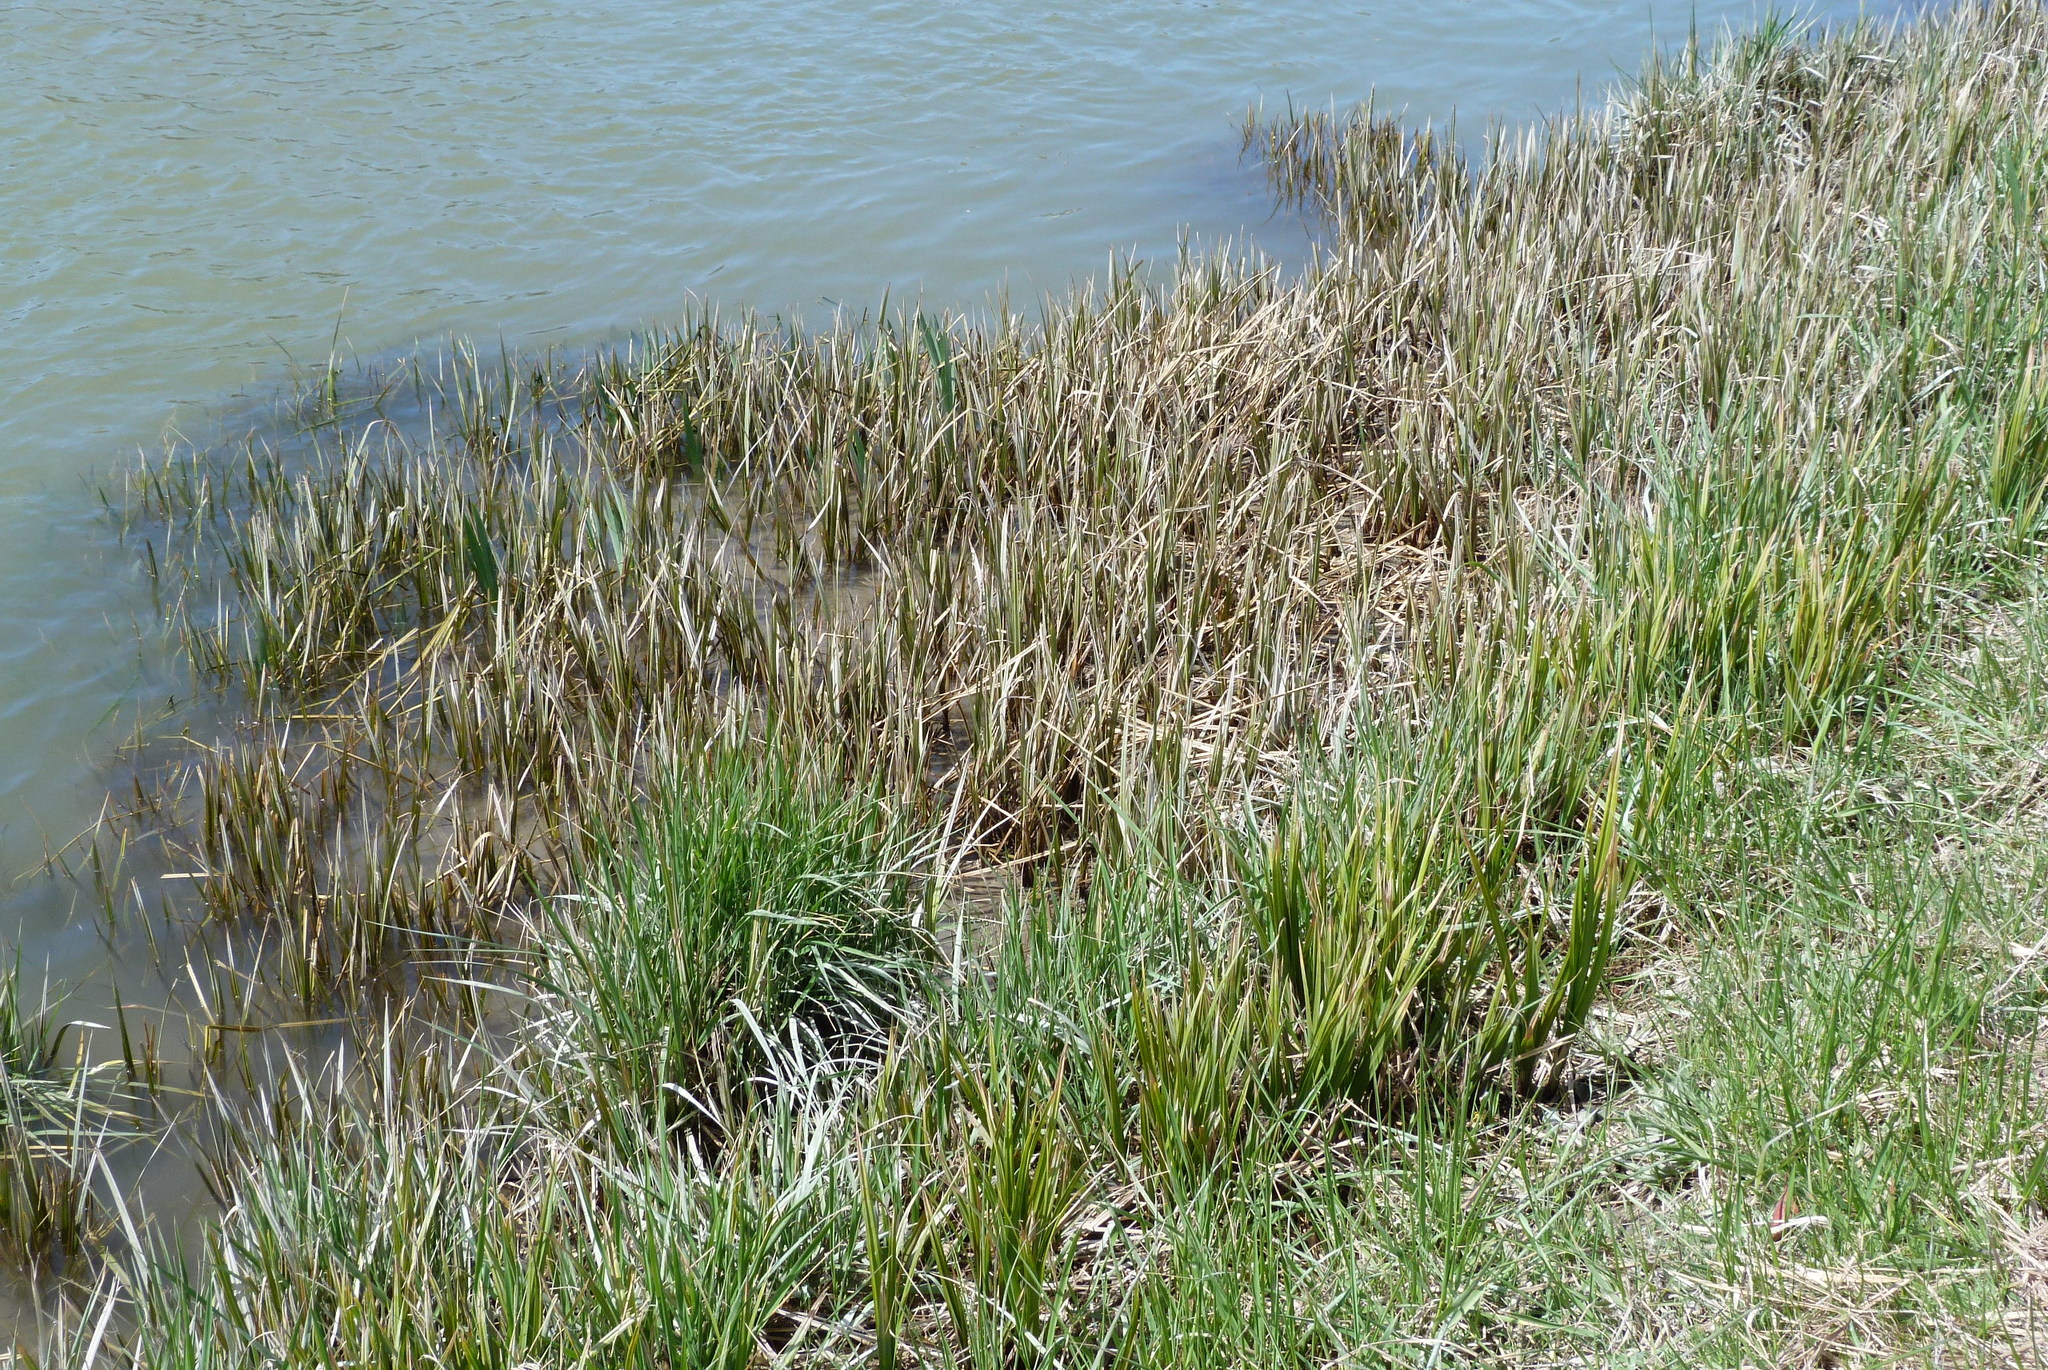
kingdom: Plantae
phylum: Tracheophyta
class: Liliopsida
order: Poales
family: Cyperaceae
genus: Carex
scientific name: Carex geminata
